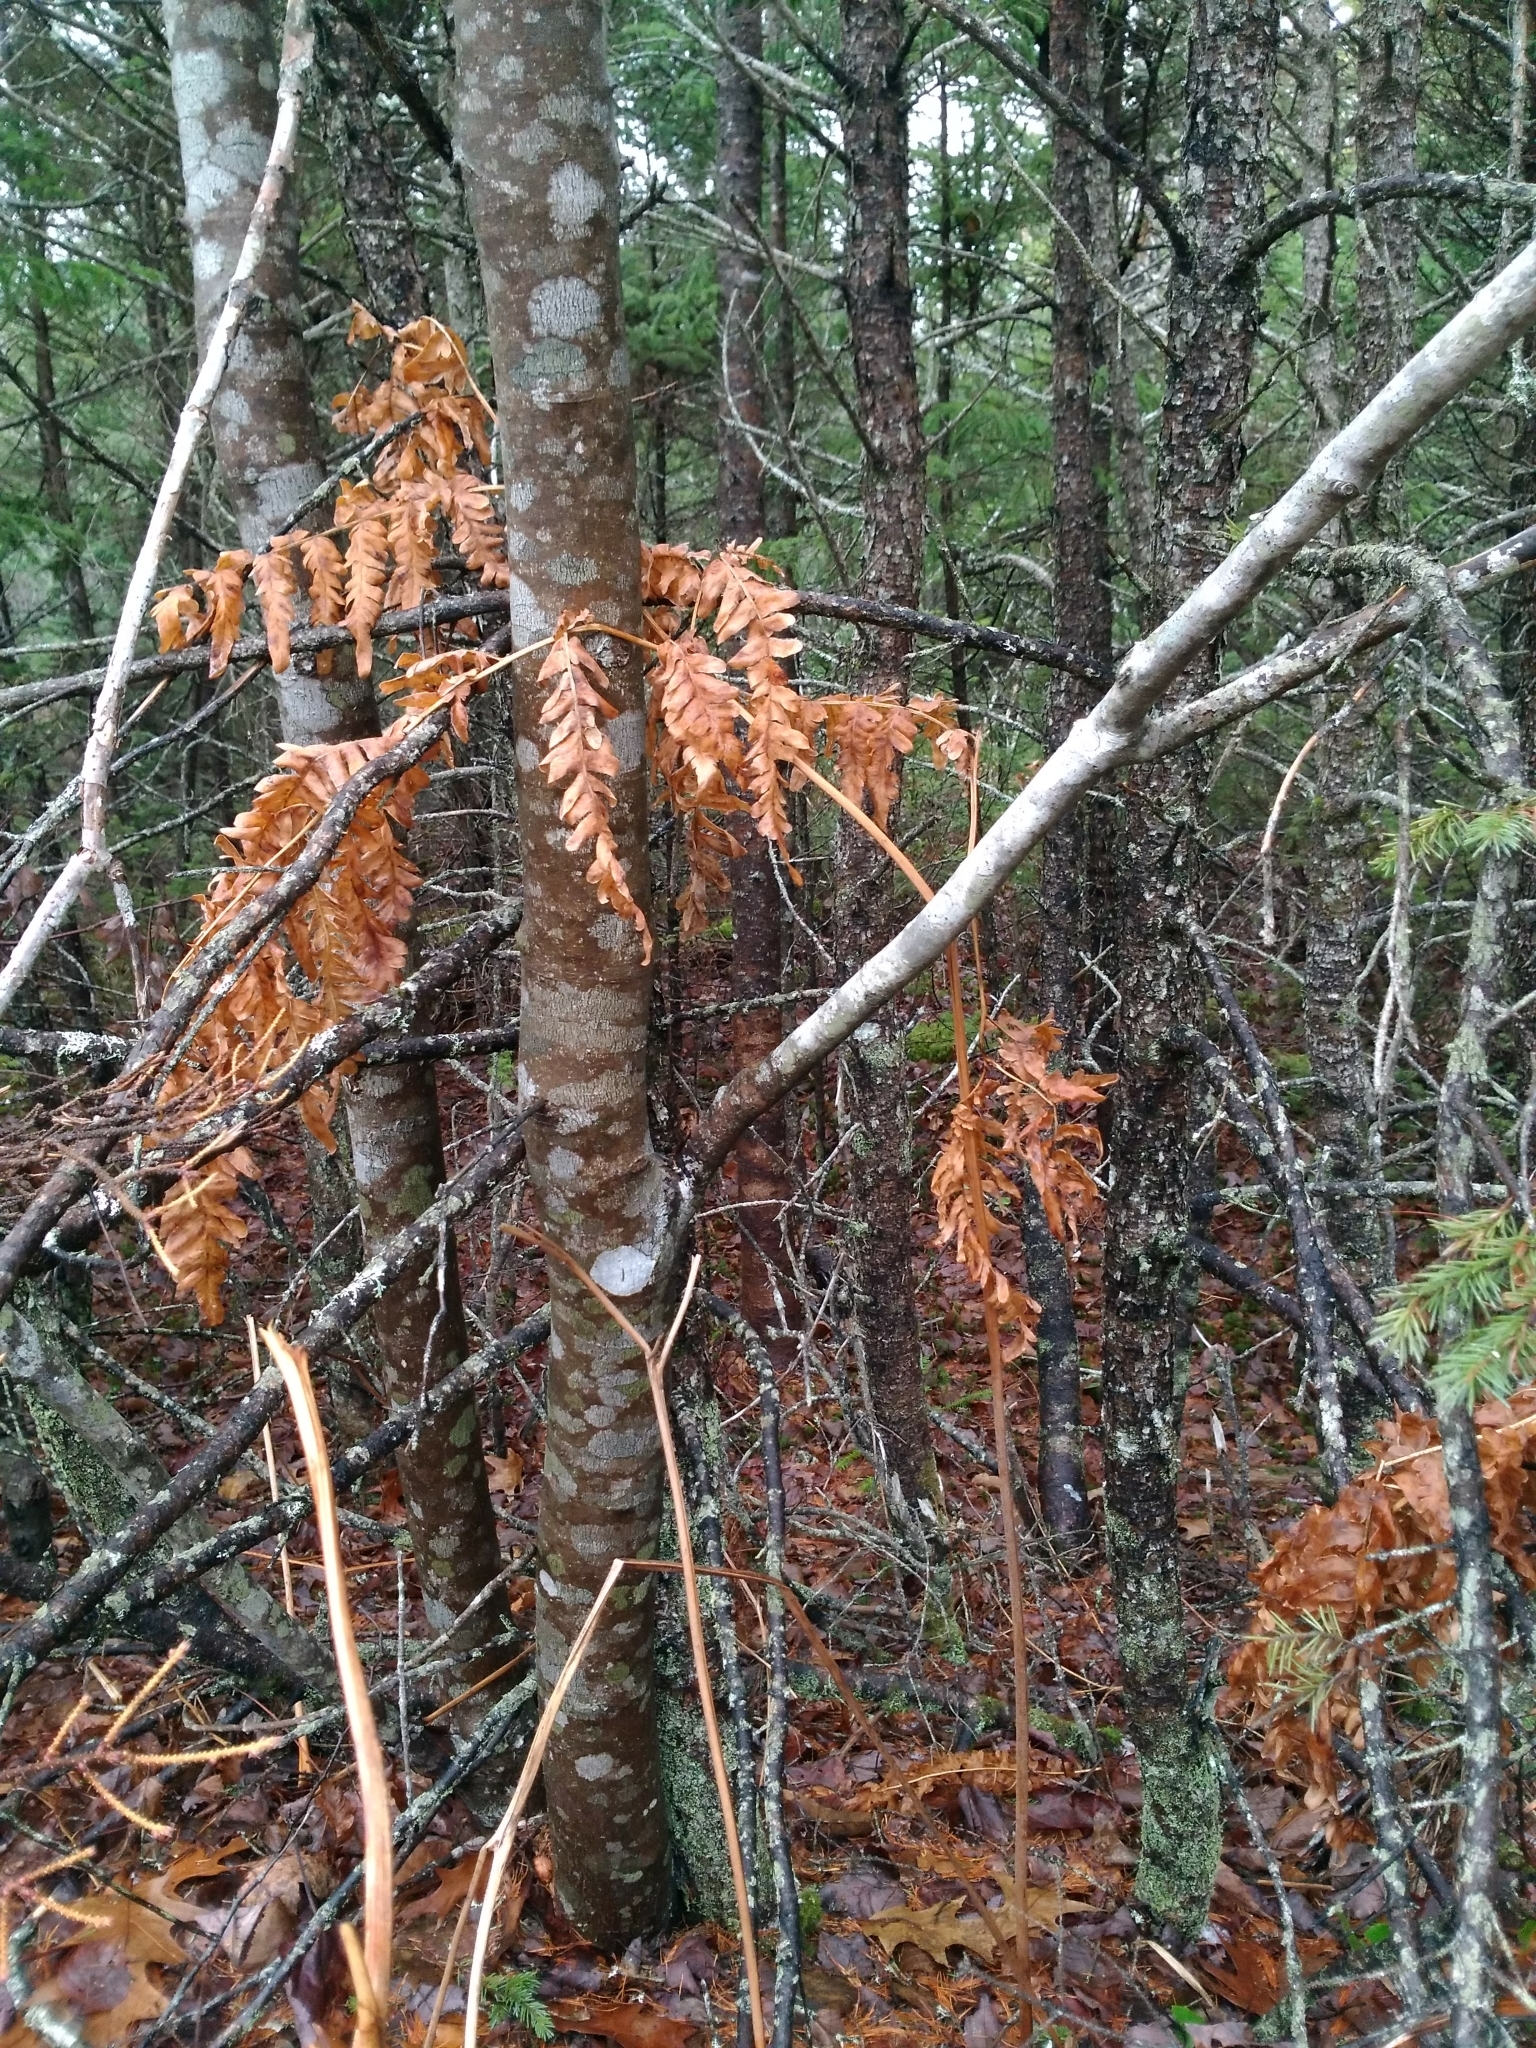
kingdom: Plantae
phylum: Tracheophyta
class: Polypodiopsida
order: Polypodiales
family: Dennstaedtiaceae
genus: Pteridium
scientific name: Pteridium aquilinum
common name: Bracken
